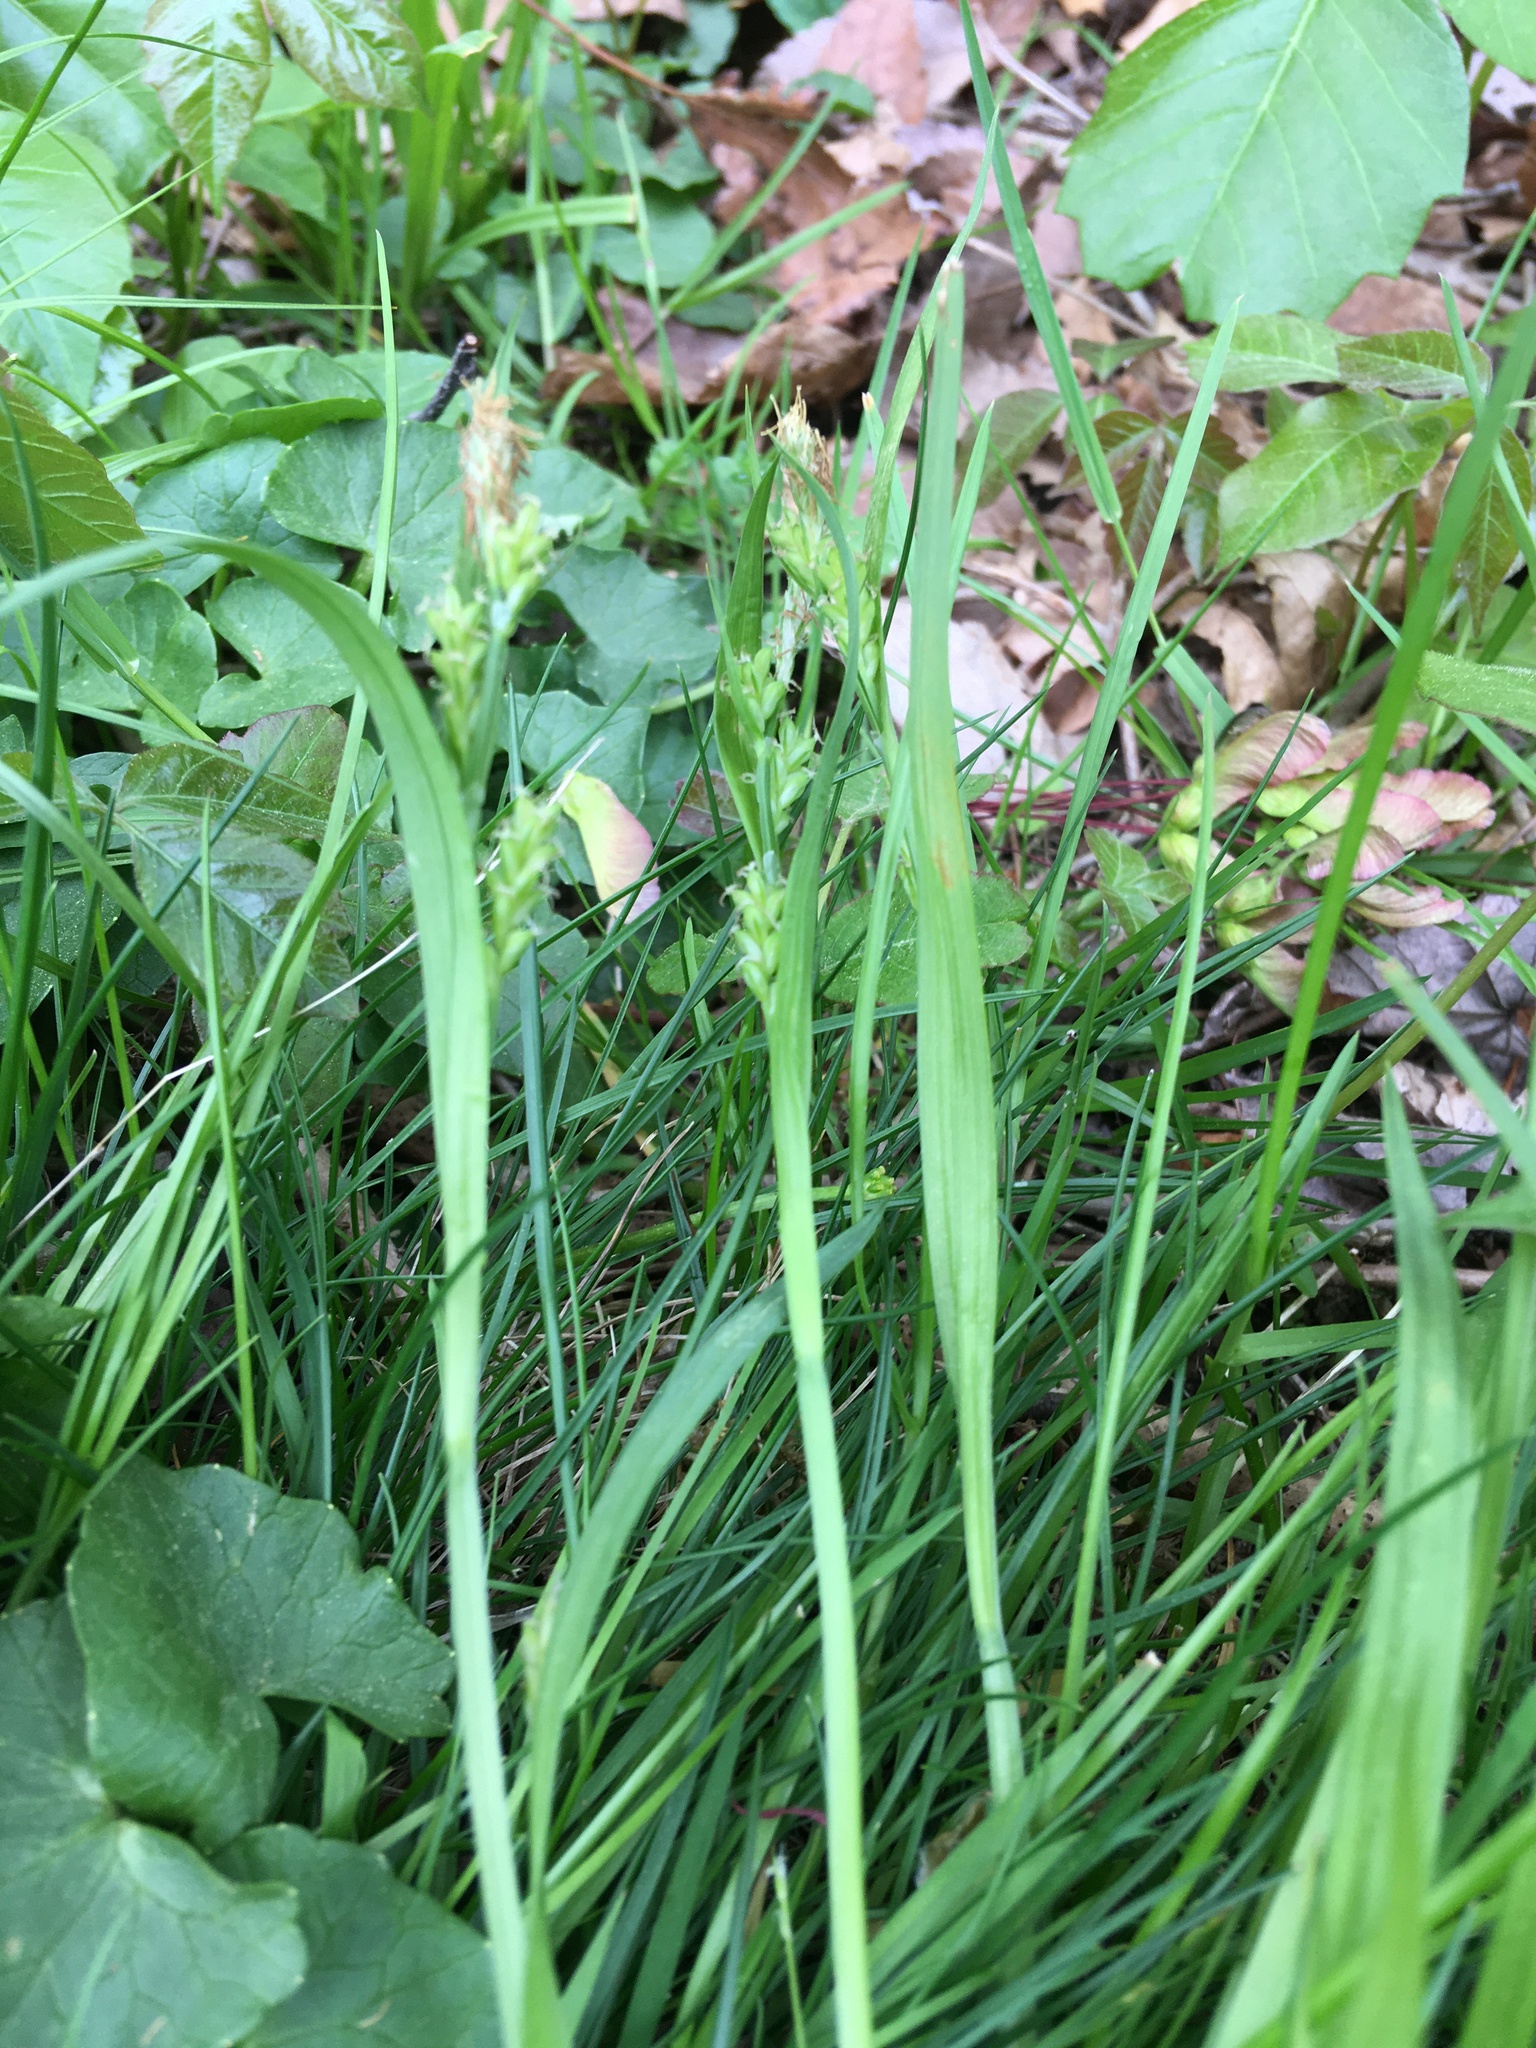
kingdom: Plantae
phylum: Tracheophyta
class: Liliopsida
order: Poales
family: Cyperaceae
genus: Carex
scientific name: Carex blanda
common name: Bland sedge
